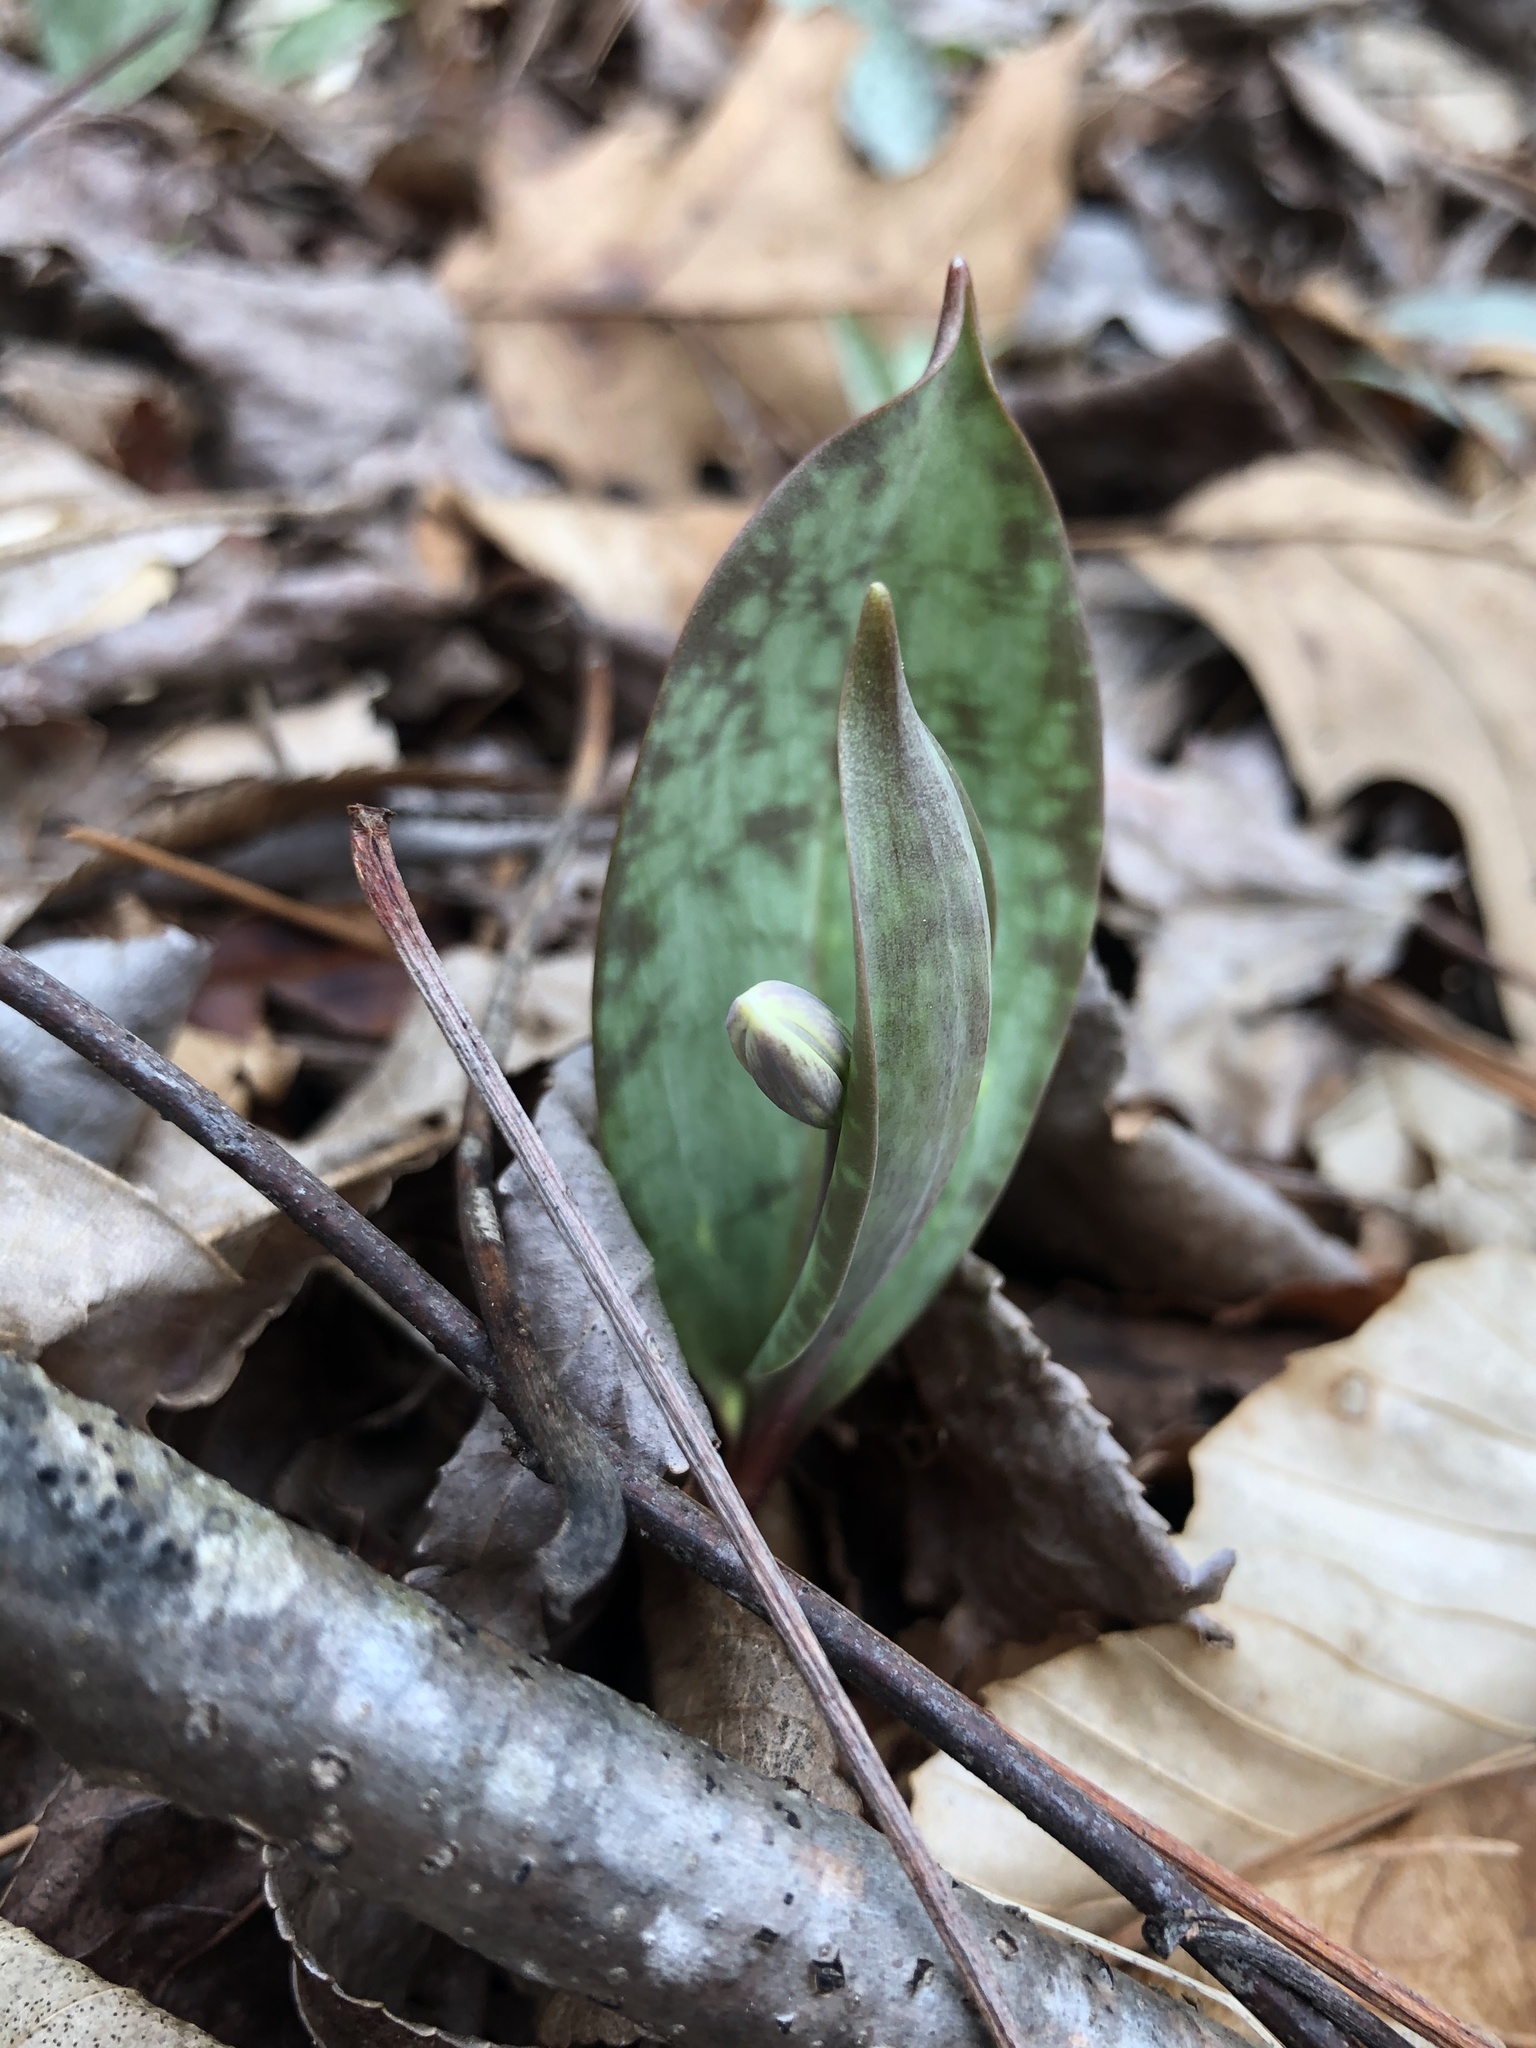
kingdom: Plantae
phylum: Tracheophyta
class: Liliopsida
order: Liliales
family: Liliaceae
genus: Erythronium
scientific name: Erythronium umbilicatum
